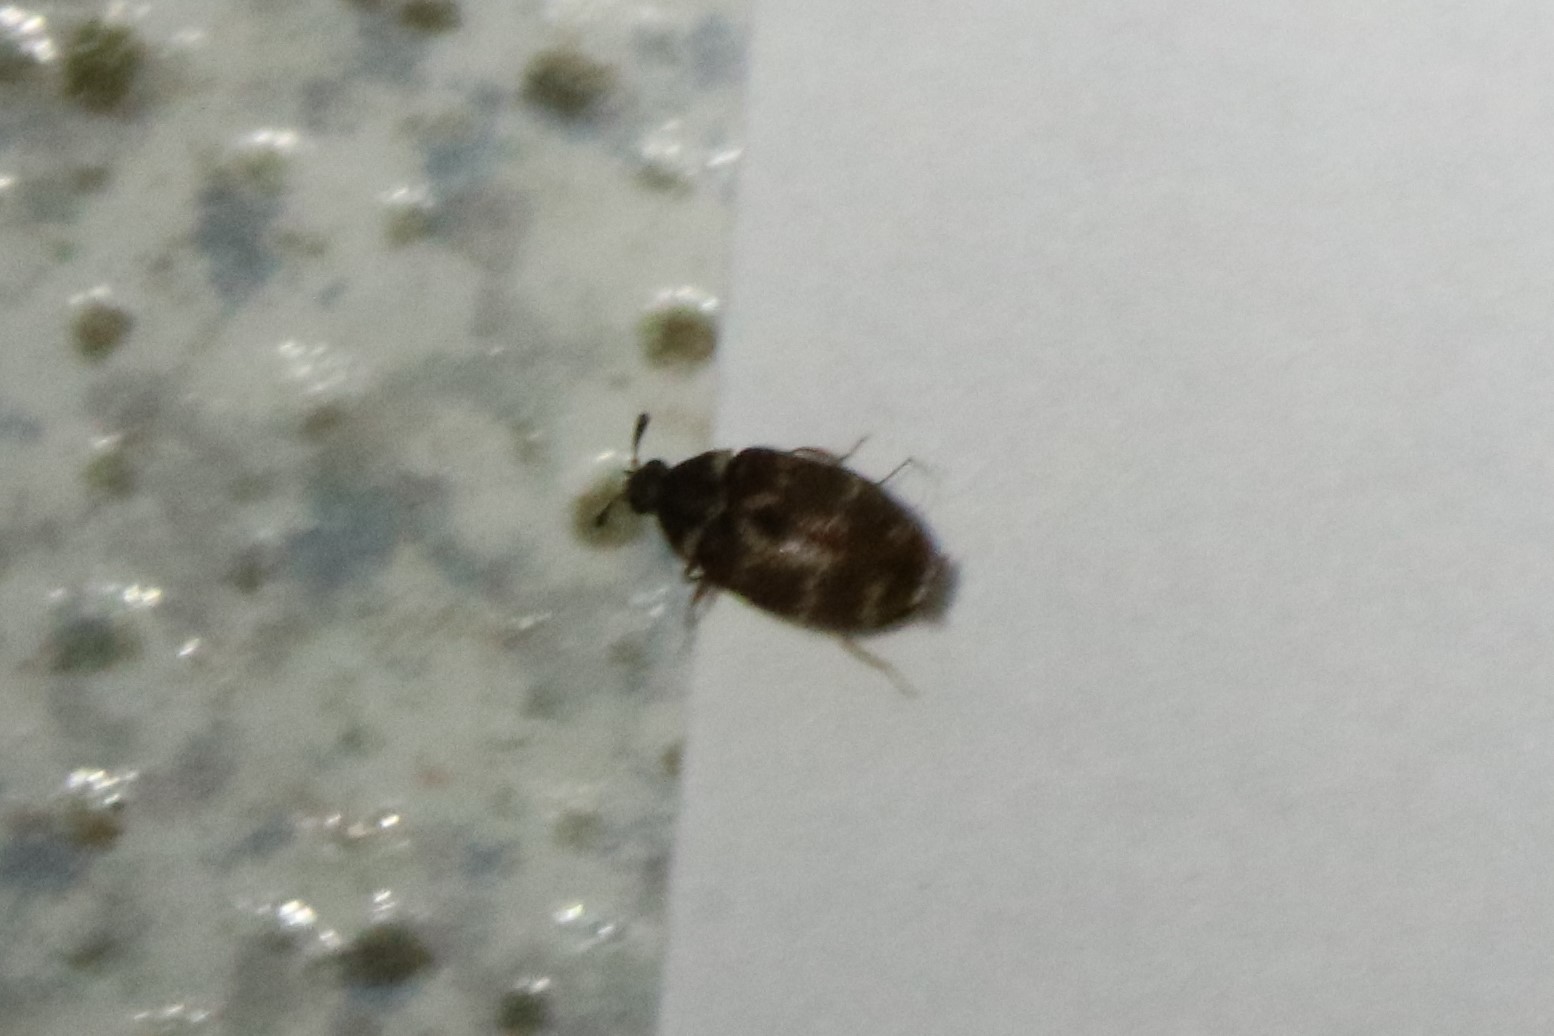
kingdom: Animalia
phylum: Arthropoda
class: Insecta
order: Coleoptera
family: Dermestidae
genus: Anthrenus
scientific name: Anthrenus fuscus
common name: Mill carpet beetle
